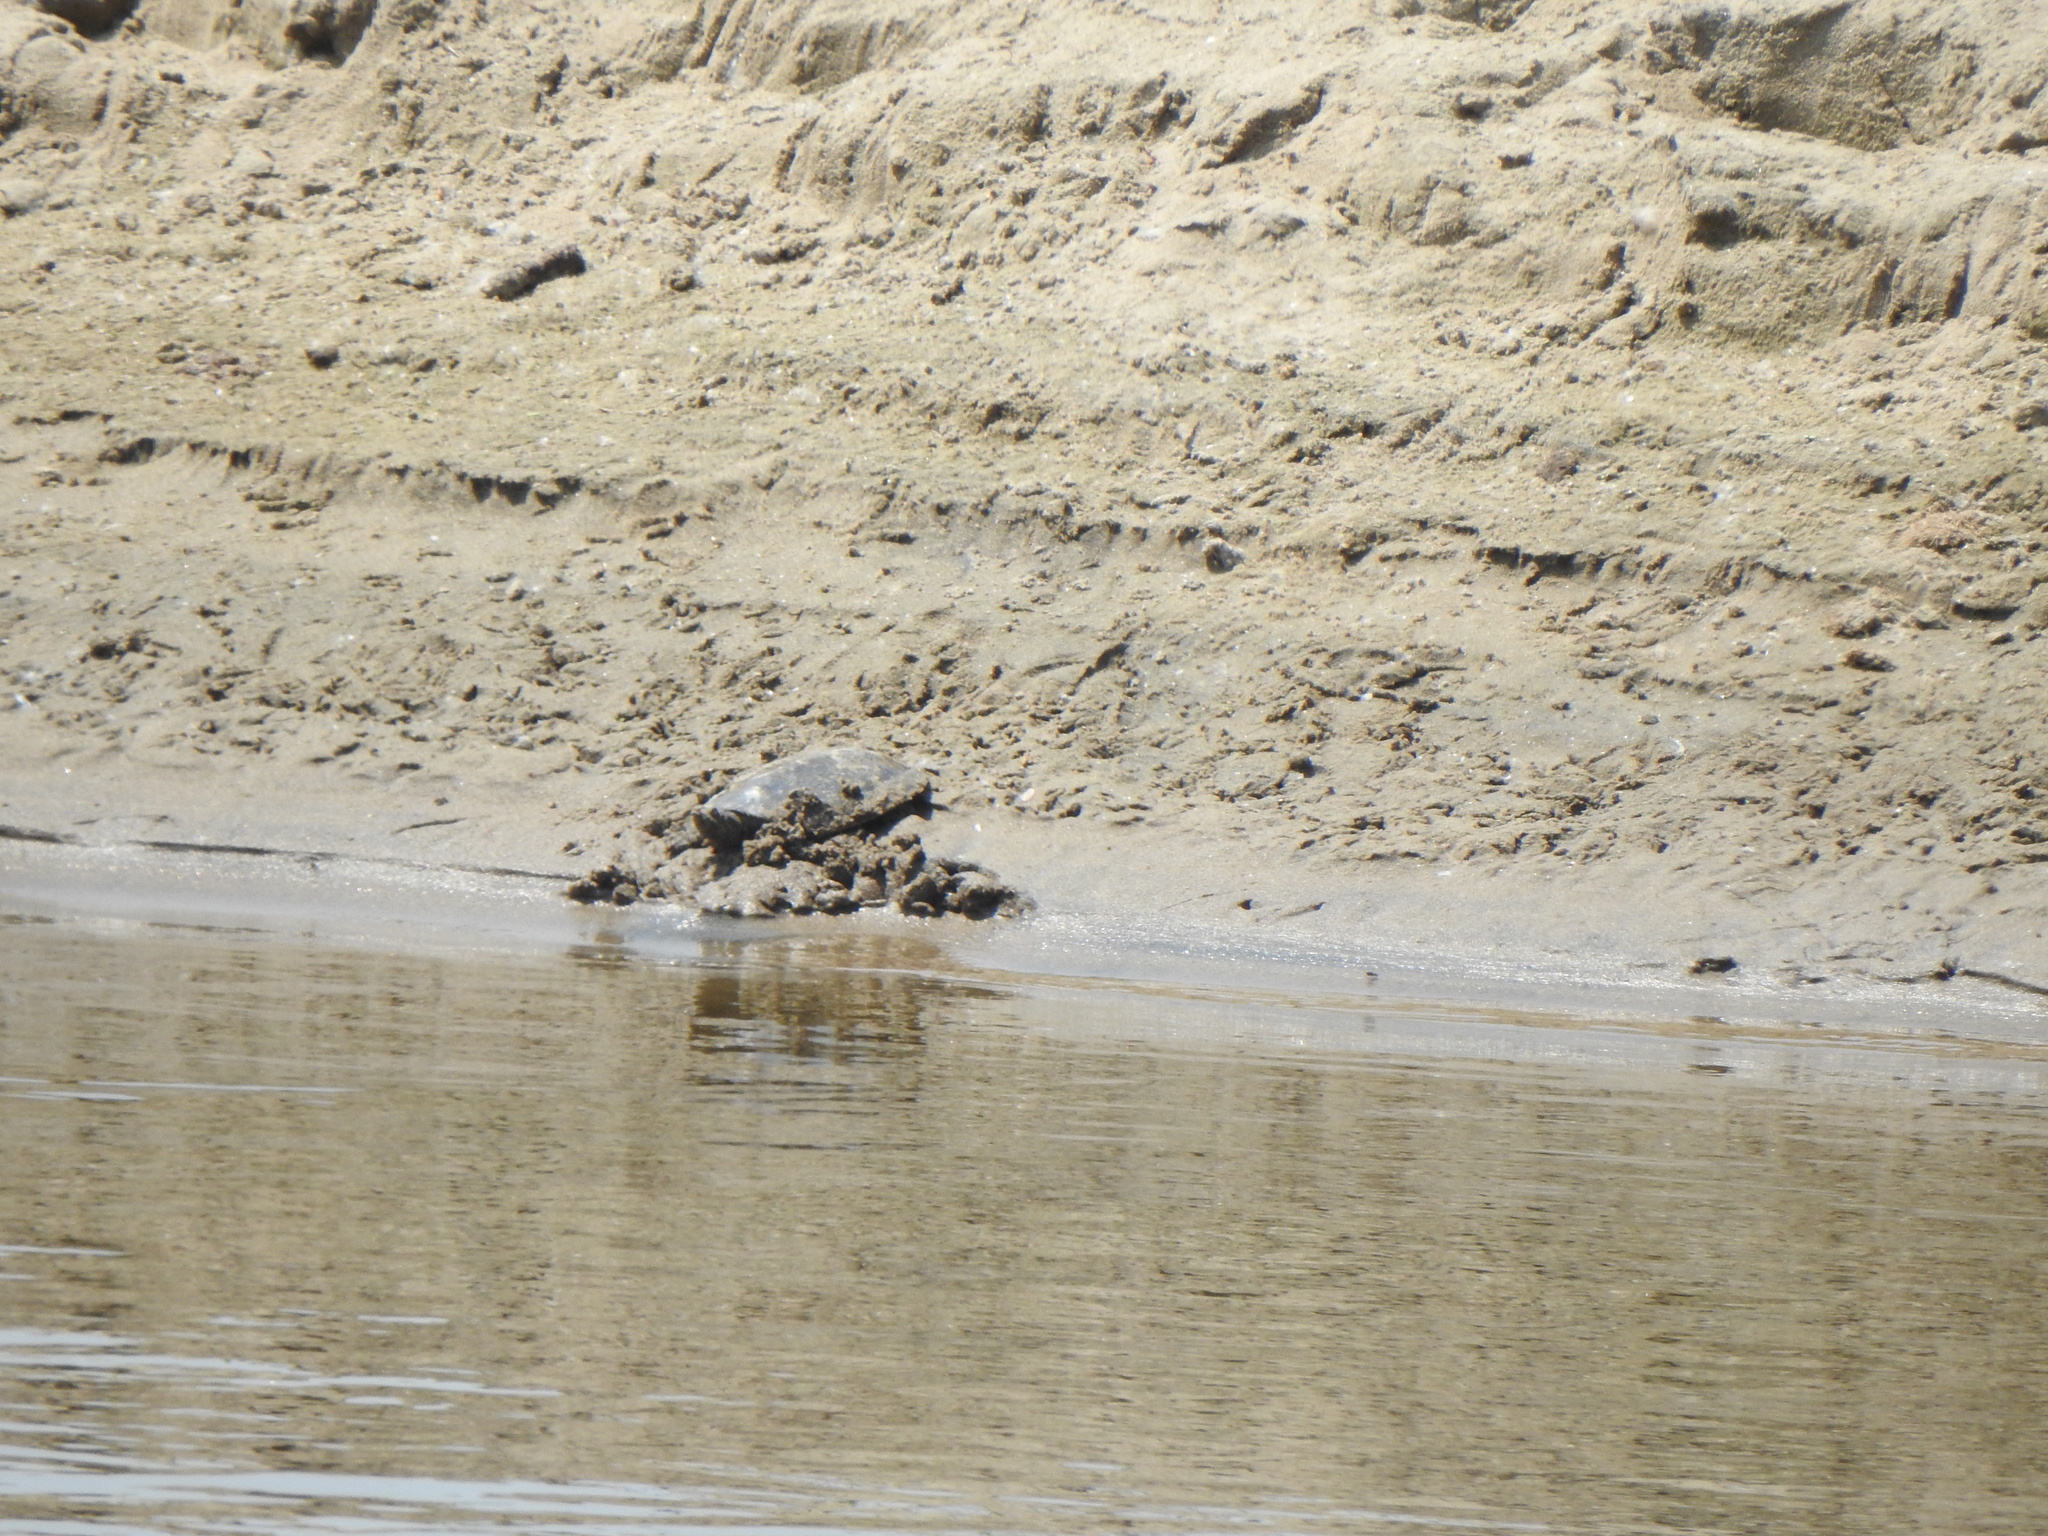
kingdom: Animalia
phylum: Chordata
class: Testudines
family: Trionychidae
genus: Apalone
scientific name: Apalone spinifera
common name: Spiny softshell turtle
